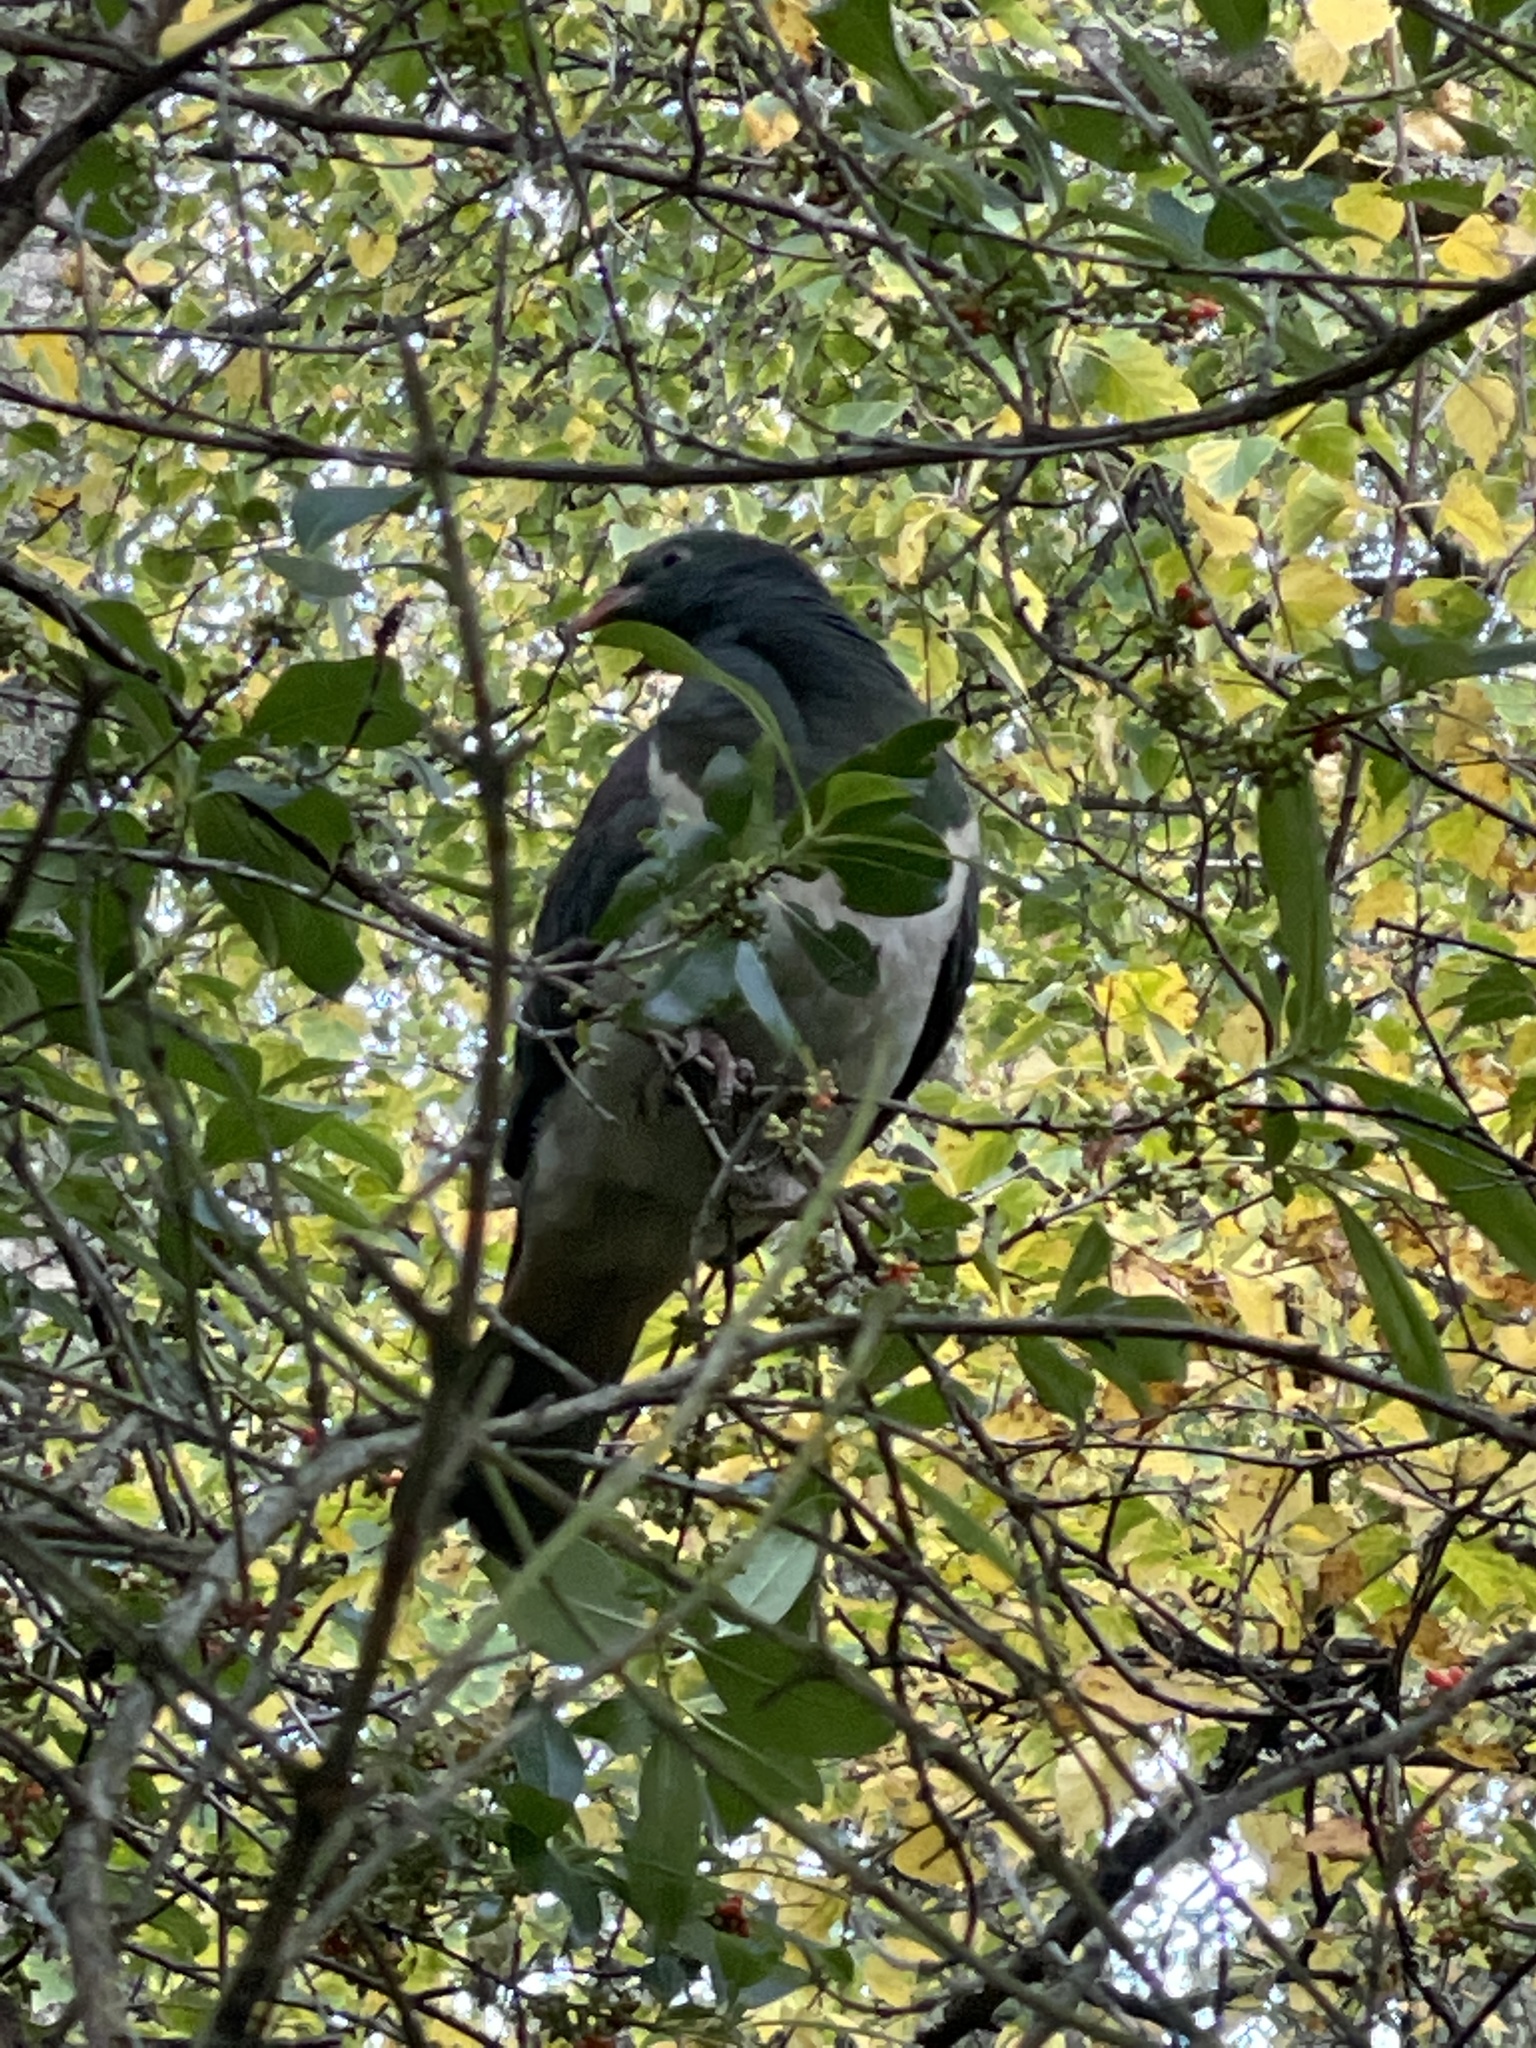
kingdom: Animalia
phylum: Chordata
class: Aves
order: Columbiformes
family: Columbidae
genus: Hemiphaga
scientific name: Hemiphaga novaeseelandiae
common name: New zealand pigeon
